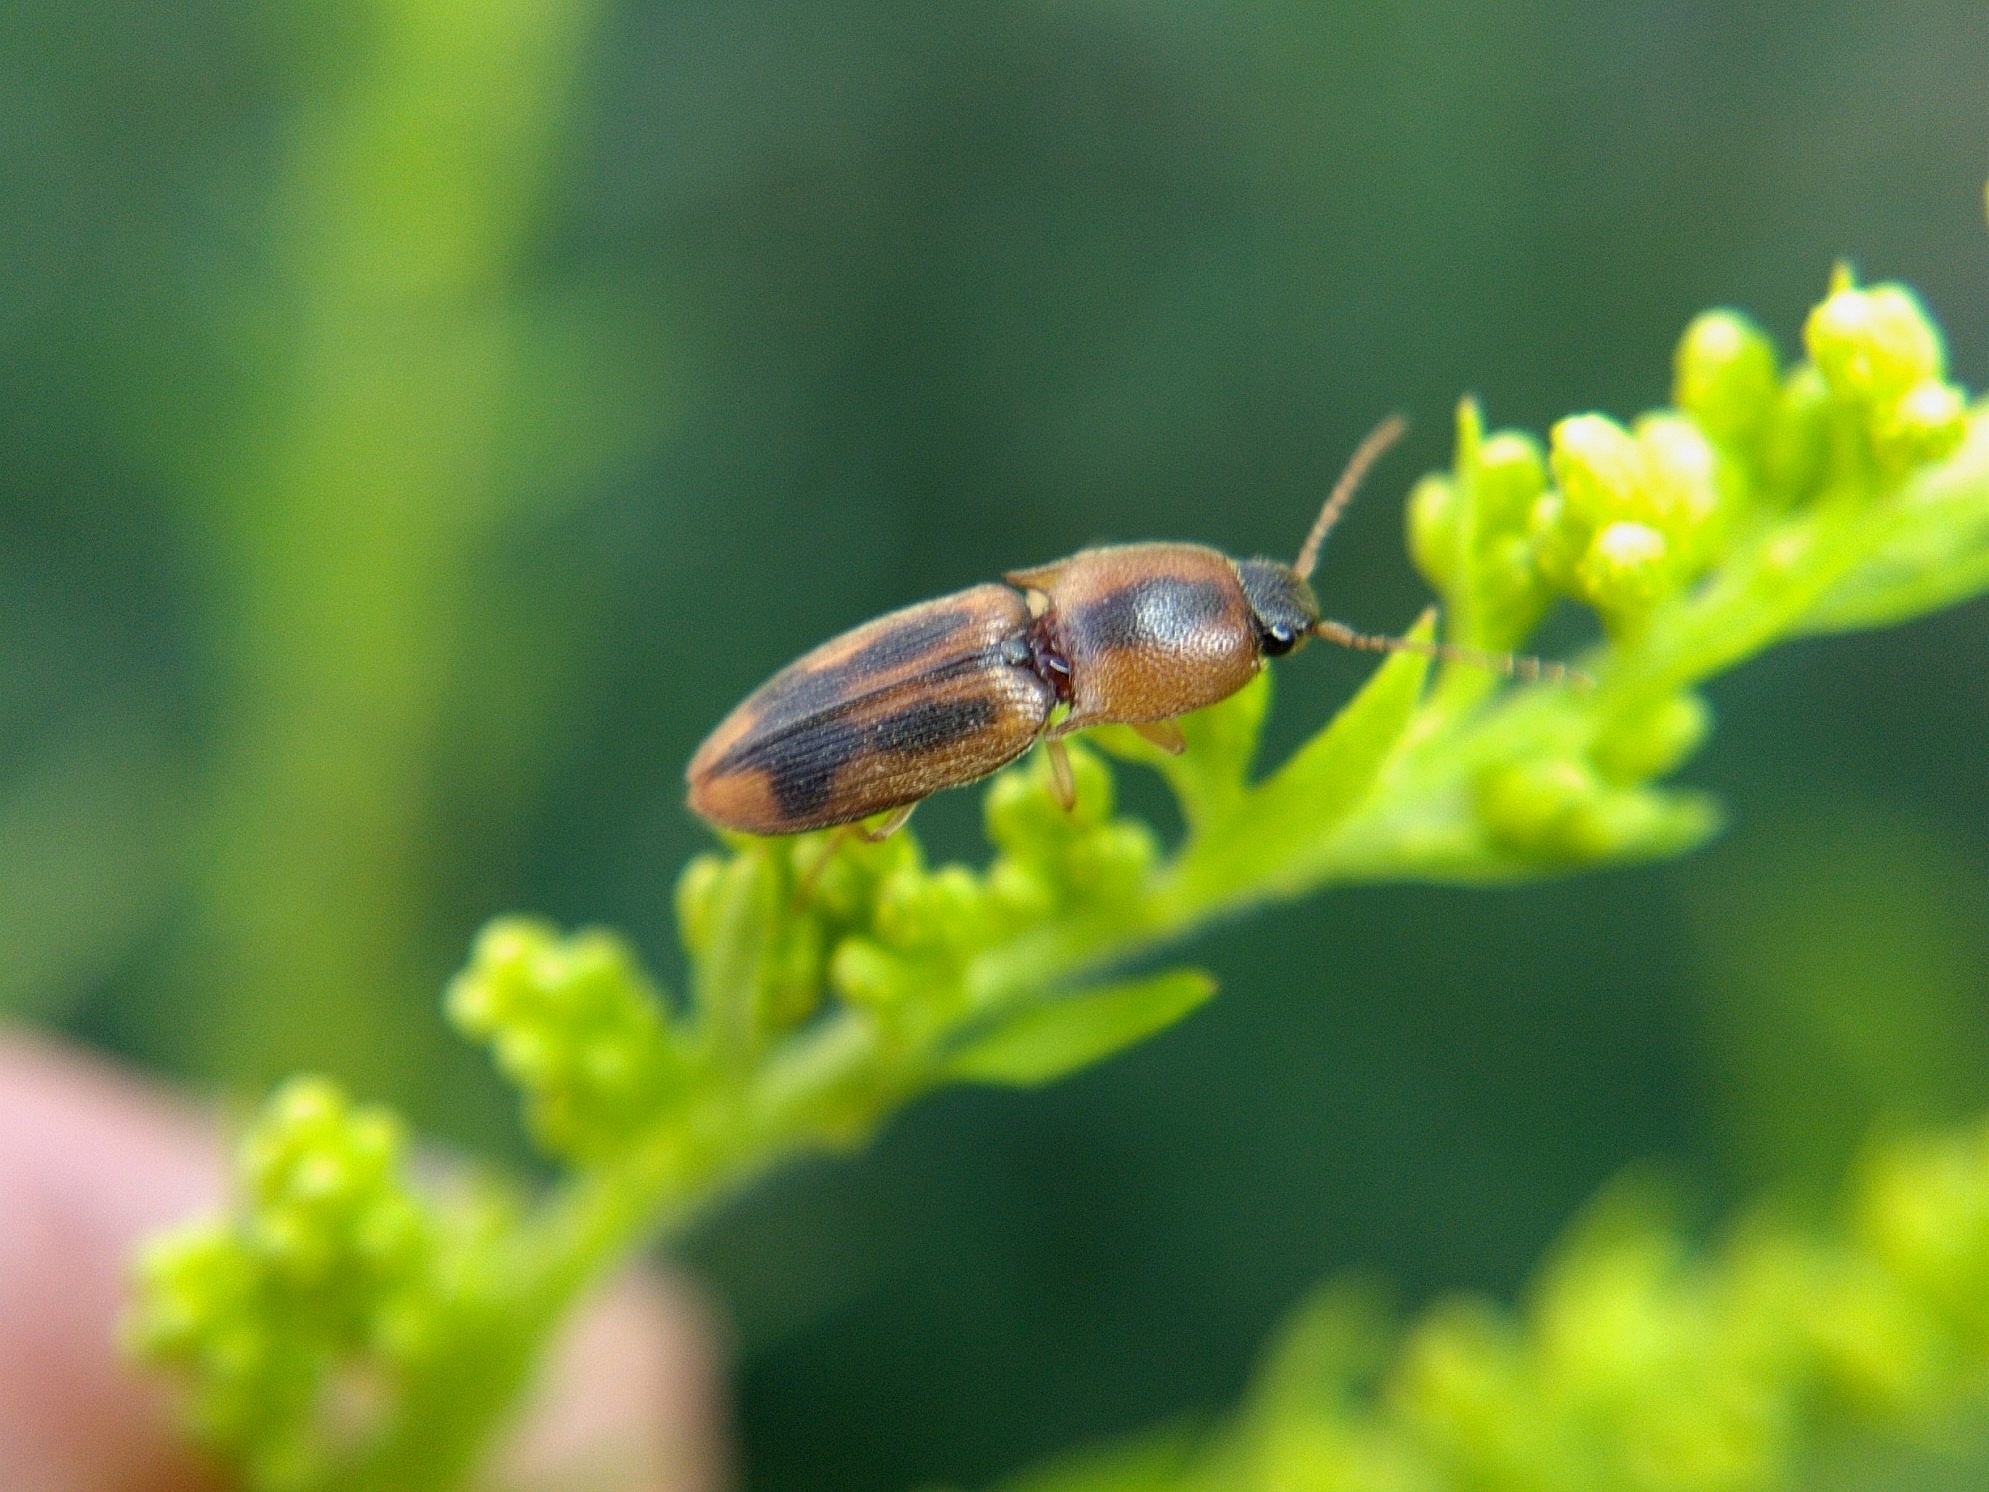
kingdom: Animalia
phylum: Arthropoda
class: Insecta
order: Coleoptera
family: Elateridae
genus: Aeolus
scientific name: Aeolus mellillus
